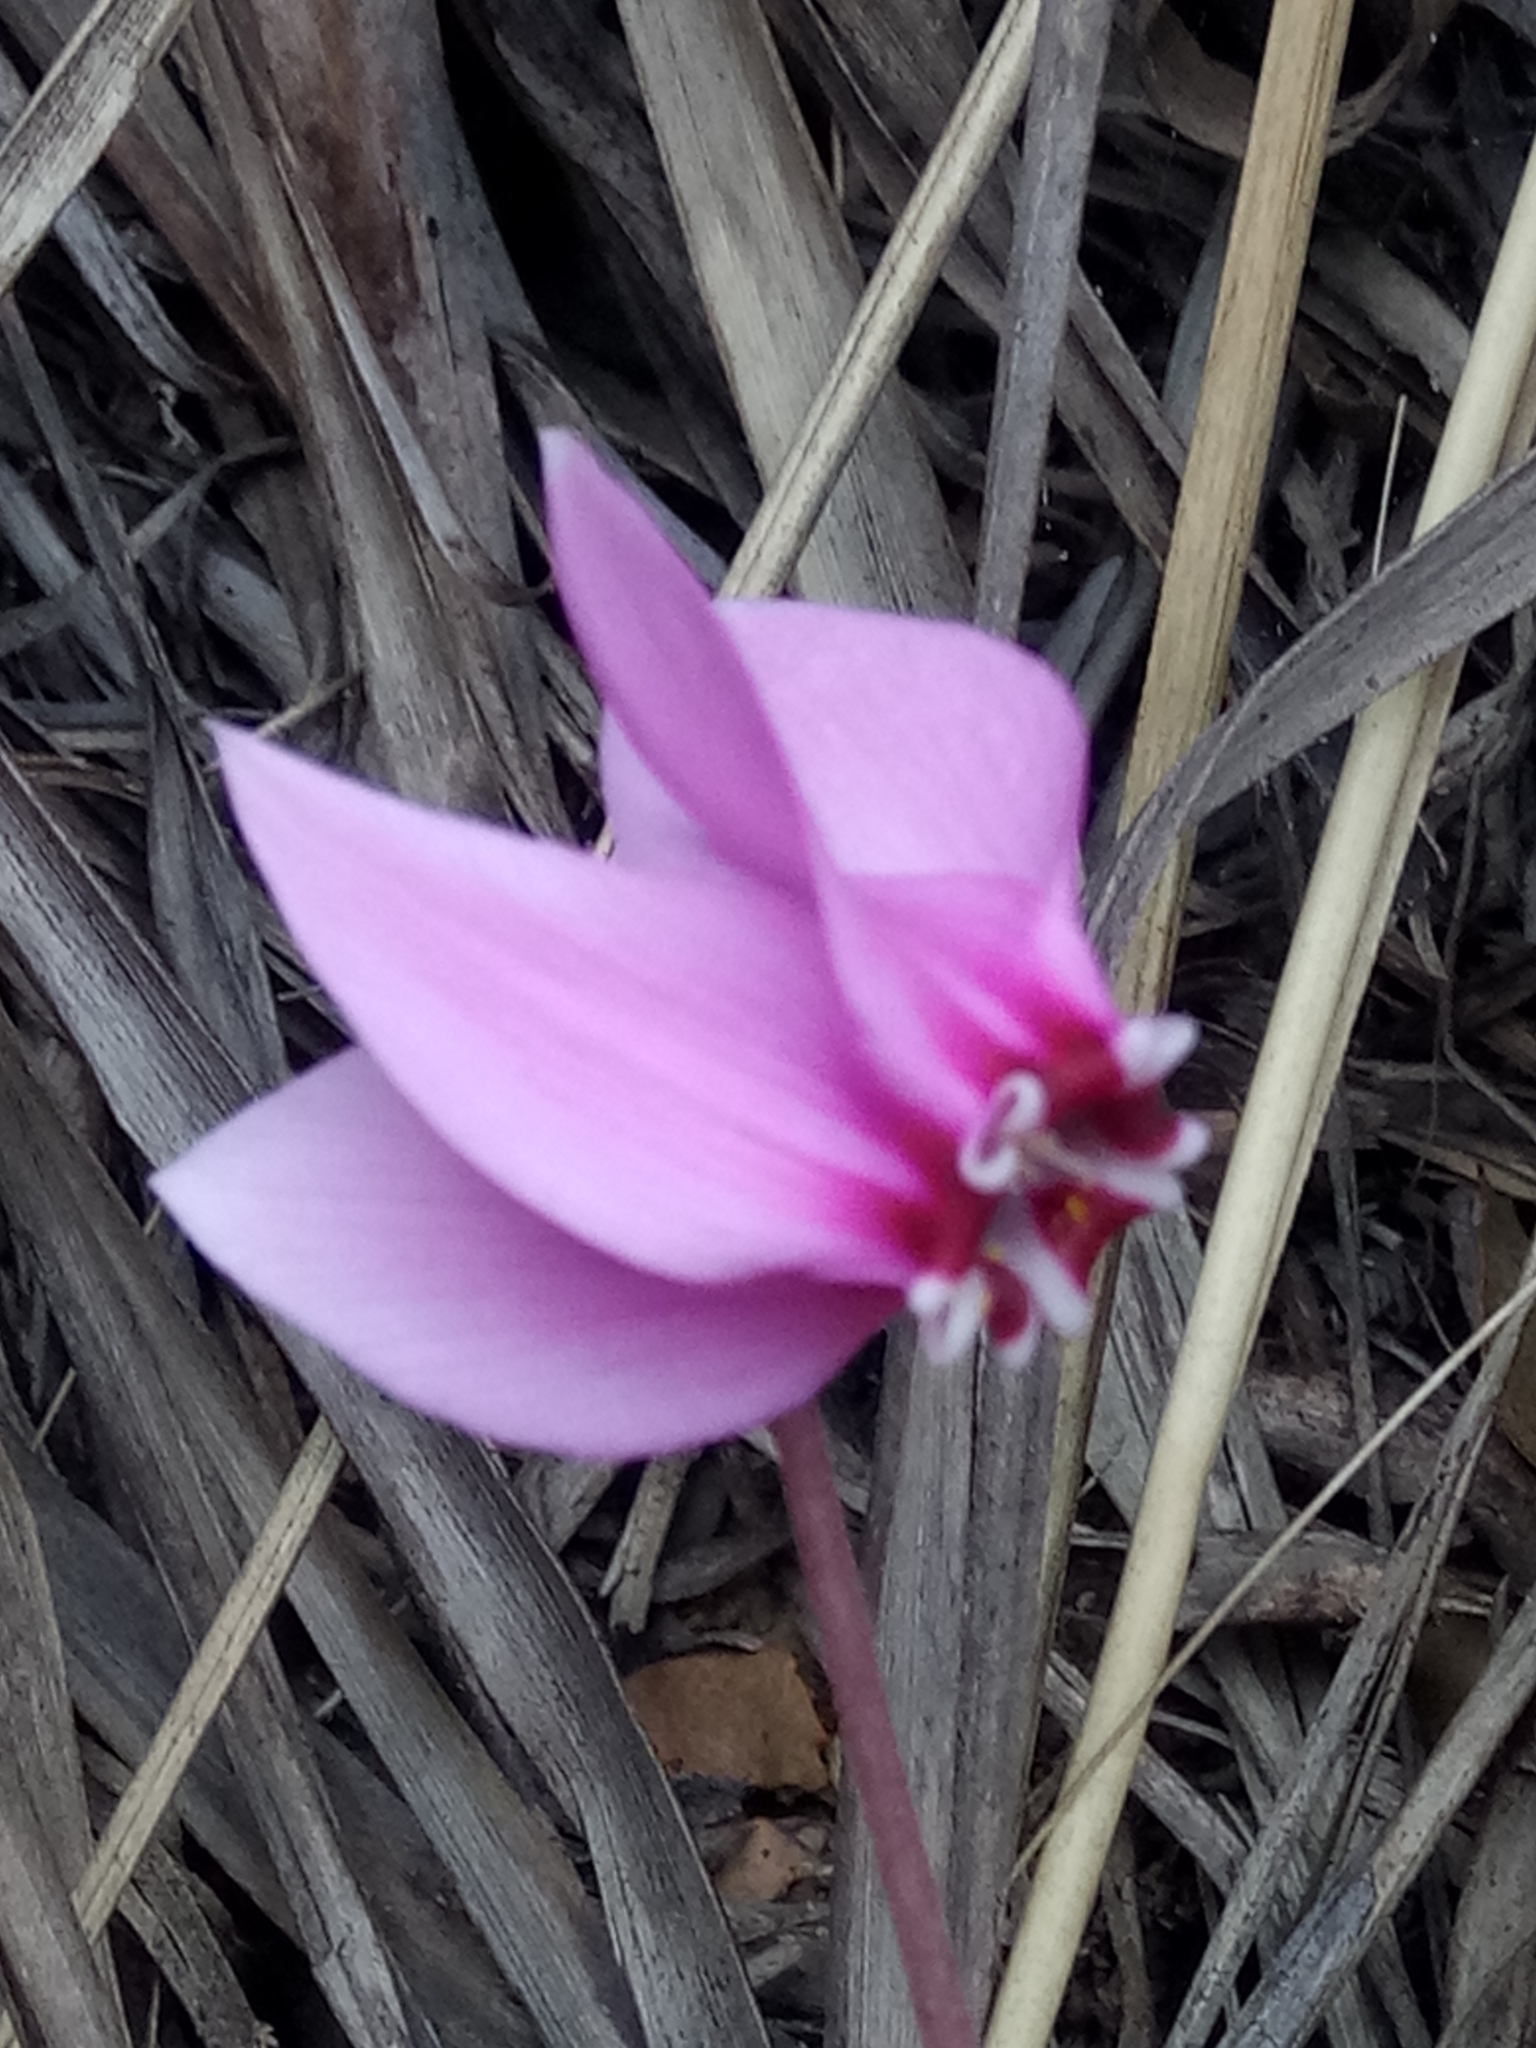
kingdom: Plantae
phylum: Tracheophyta
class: Magnoliopsida
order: Ericales
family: Primulaceae
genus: Cyclamen
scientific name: Cyclamen africanum
